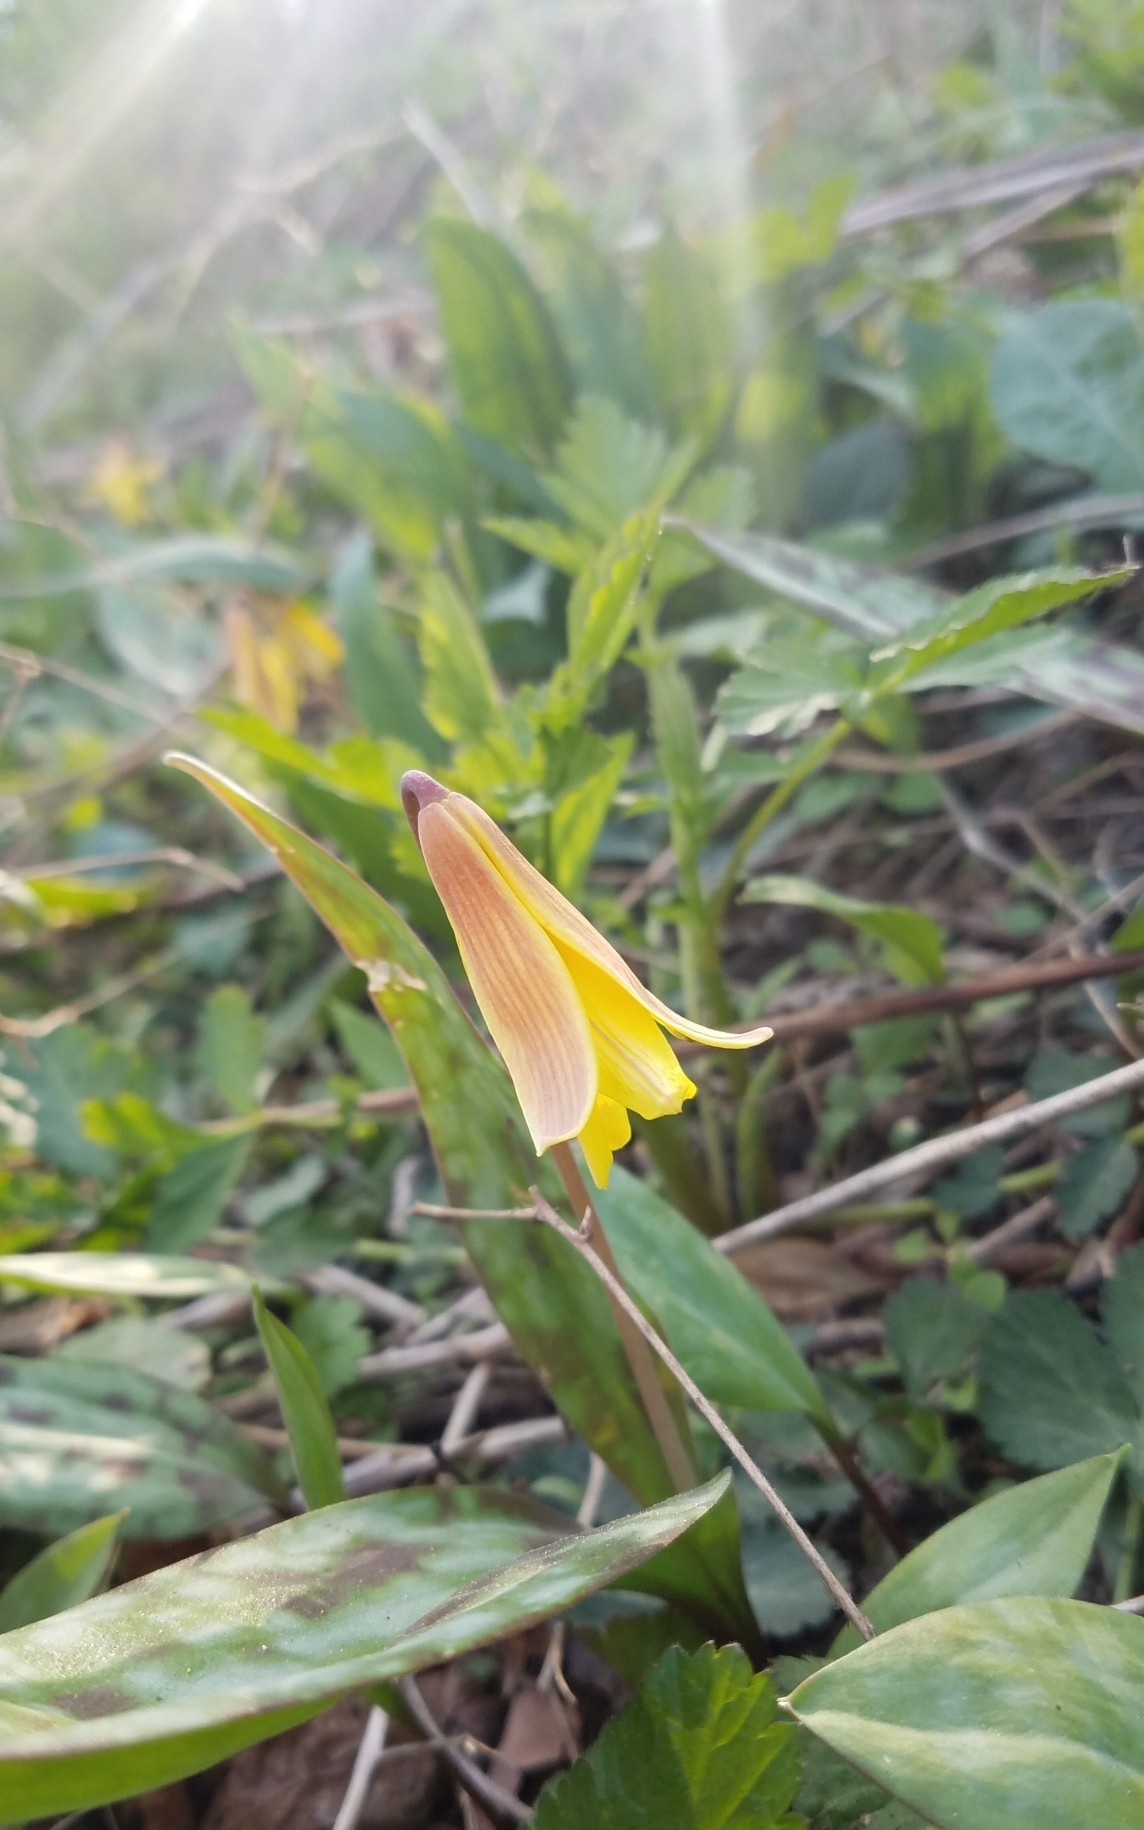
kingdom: Plantae
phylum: Tracheophyta
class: Liliopsida
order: Liliales
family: Liliaceae
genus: Erythronium
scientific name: Erythronium americanum
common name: Yellow adder's-tongue
